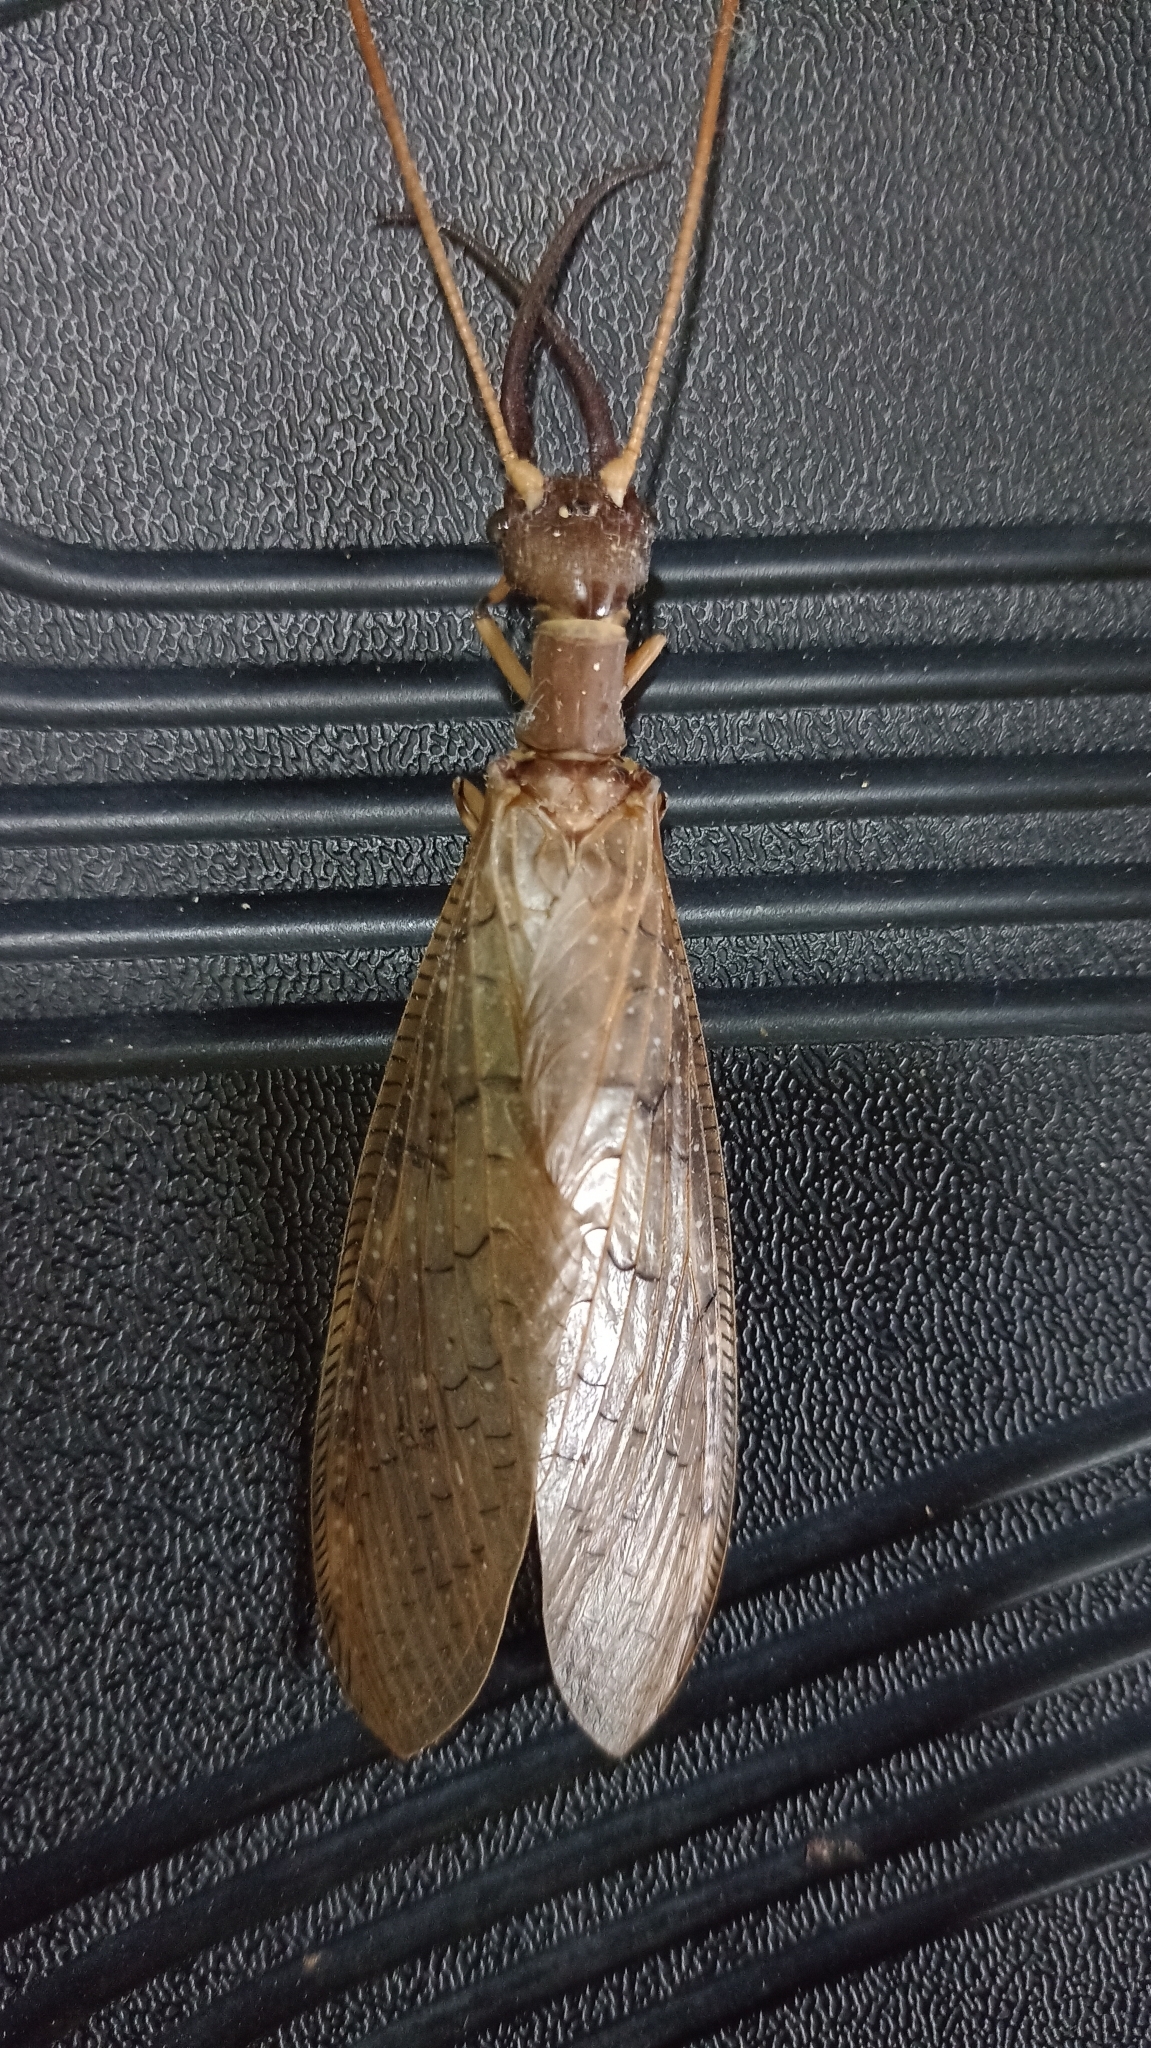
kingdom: Animalia
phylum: Arthropoda
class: Insecta
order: Megaloptera
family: Corydalidae
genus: Corydalus
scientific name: Corydalus peruvianus
